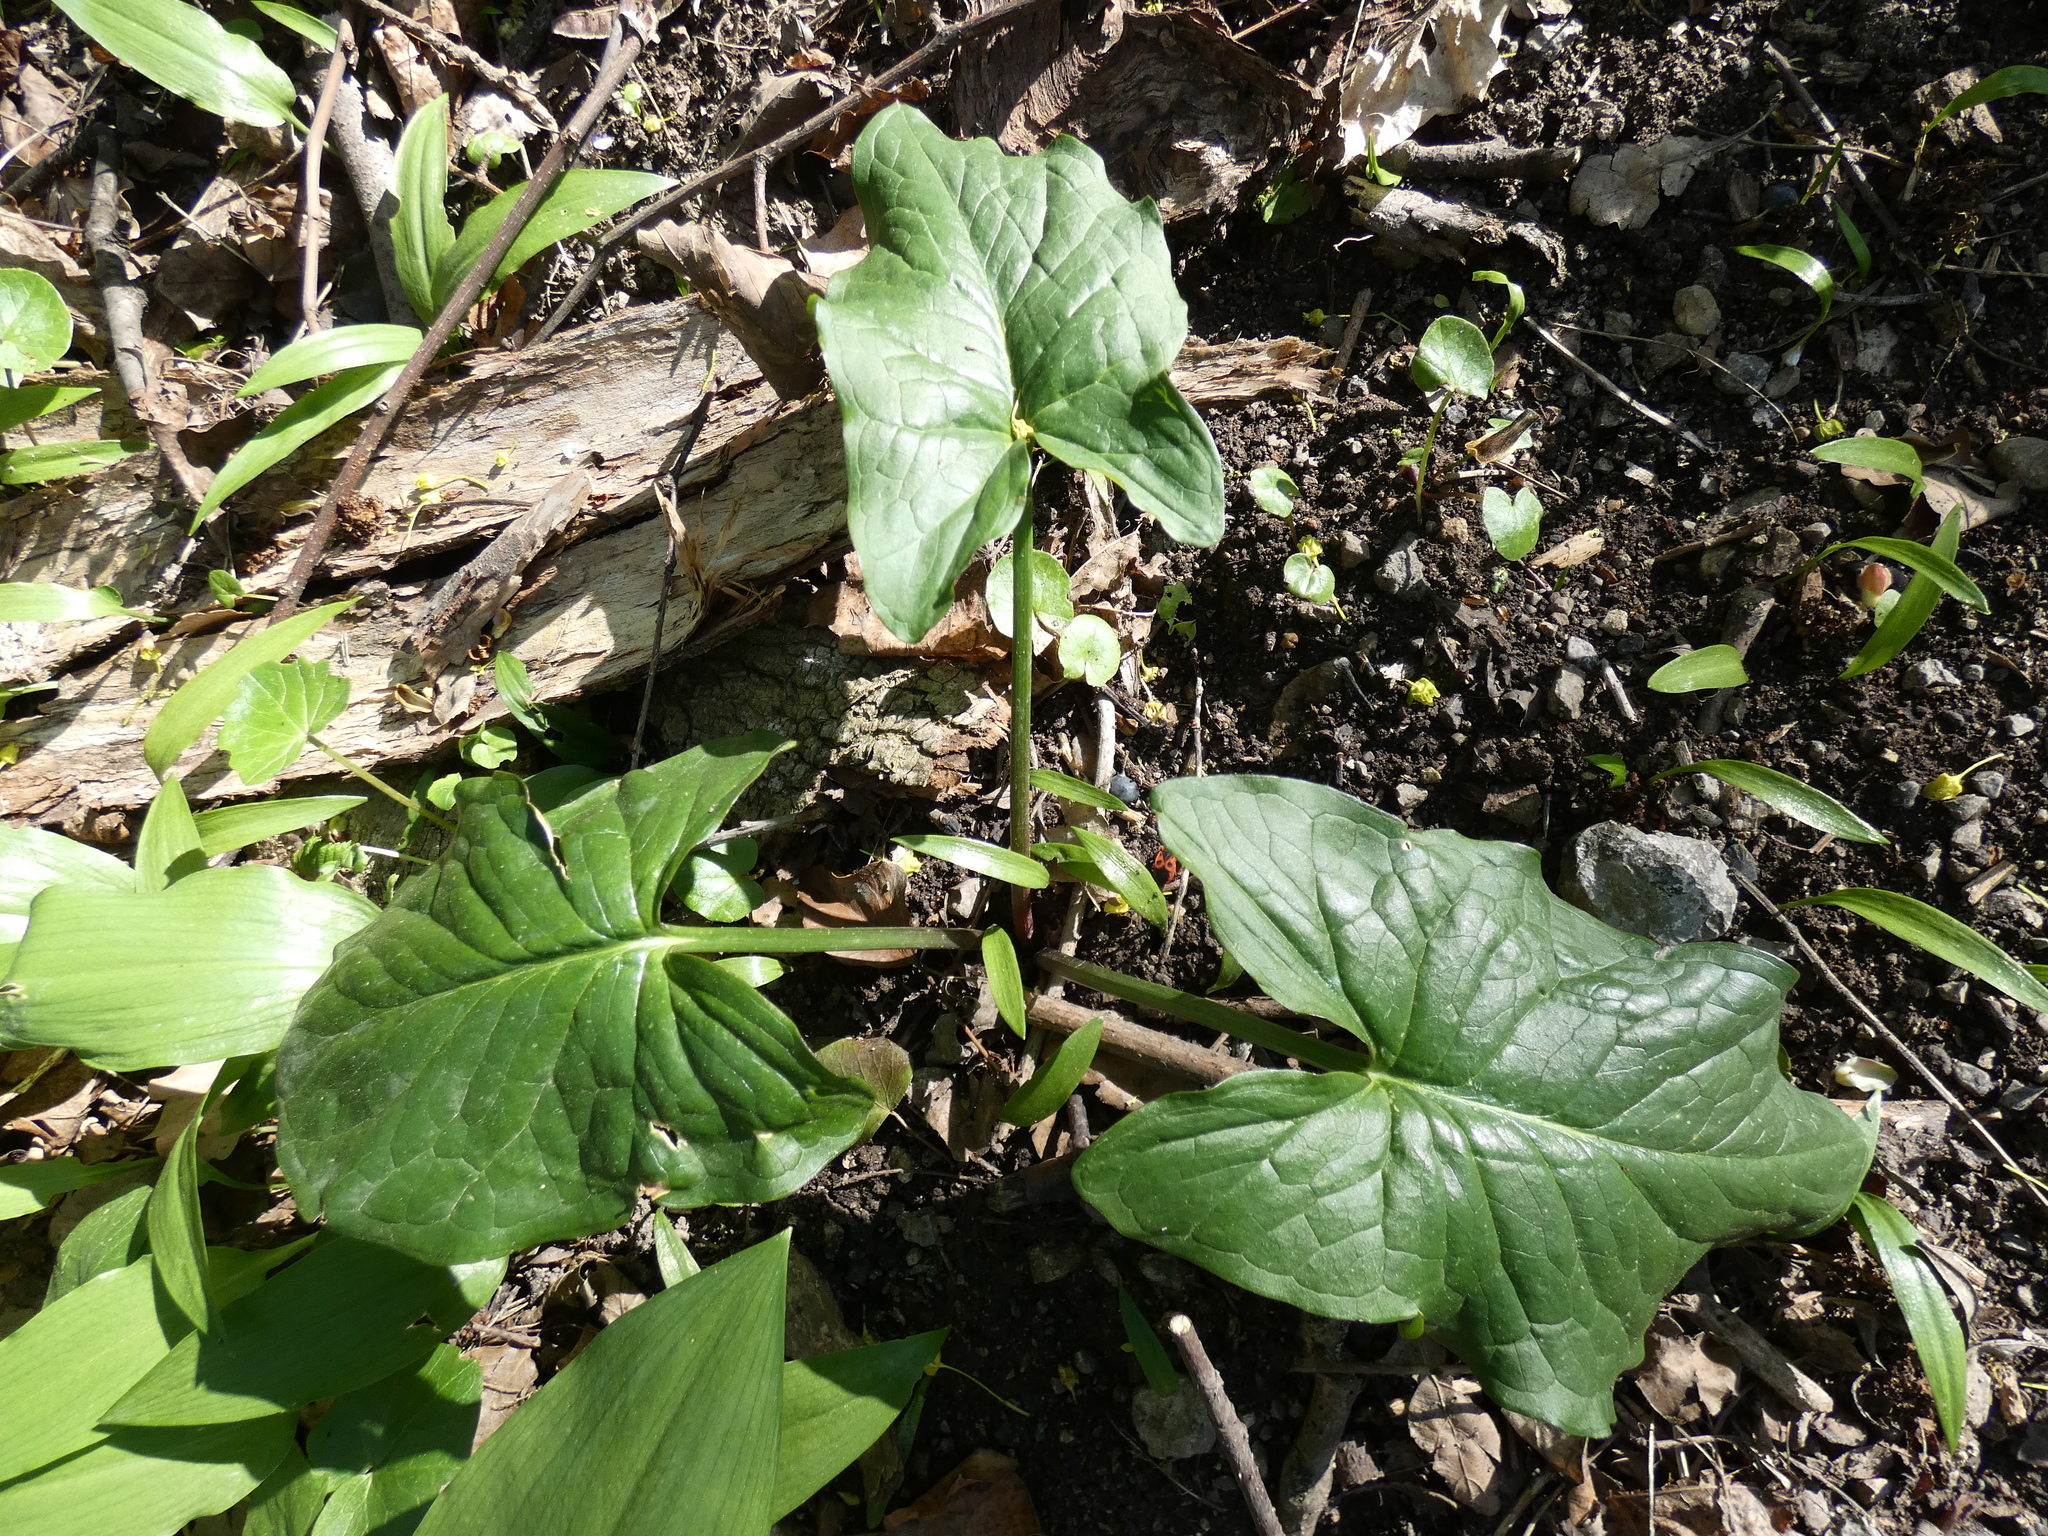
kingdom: Plantae
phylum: Tracheophyta
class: Liliopsida
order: Alismatales
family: Araceae
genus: Arum
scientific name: Arum cylindraceum
